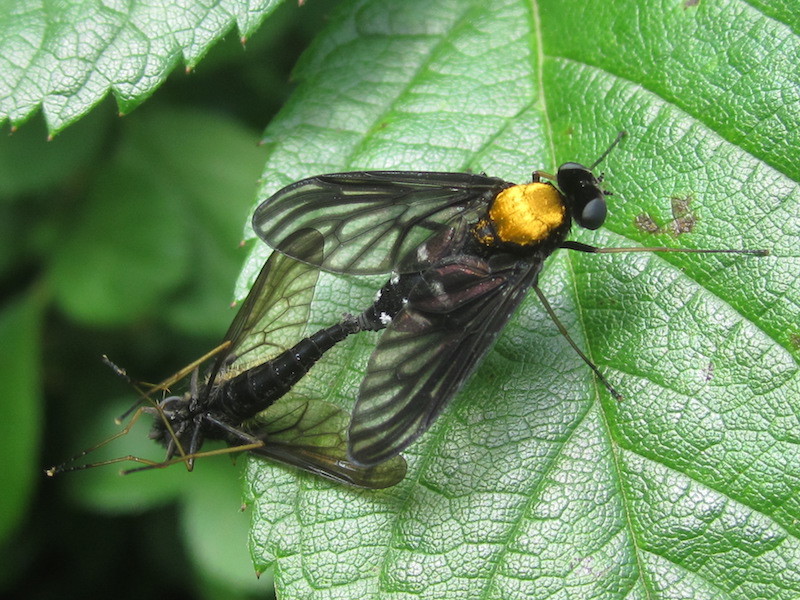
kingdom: Animalia
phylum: Arthropoda
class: Insecta
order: Diptera
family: Rhagionidae
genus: Chrysopilus
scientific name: Chrysopilus thoracicus
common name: Golden-backed snipe fly
